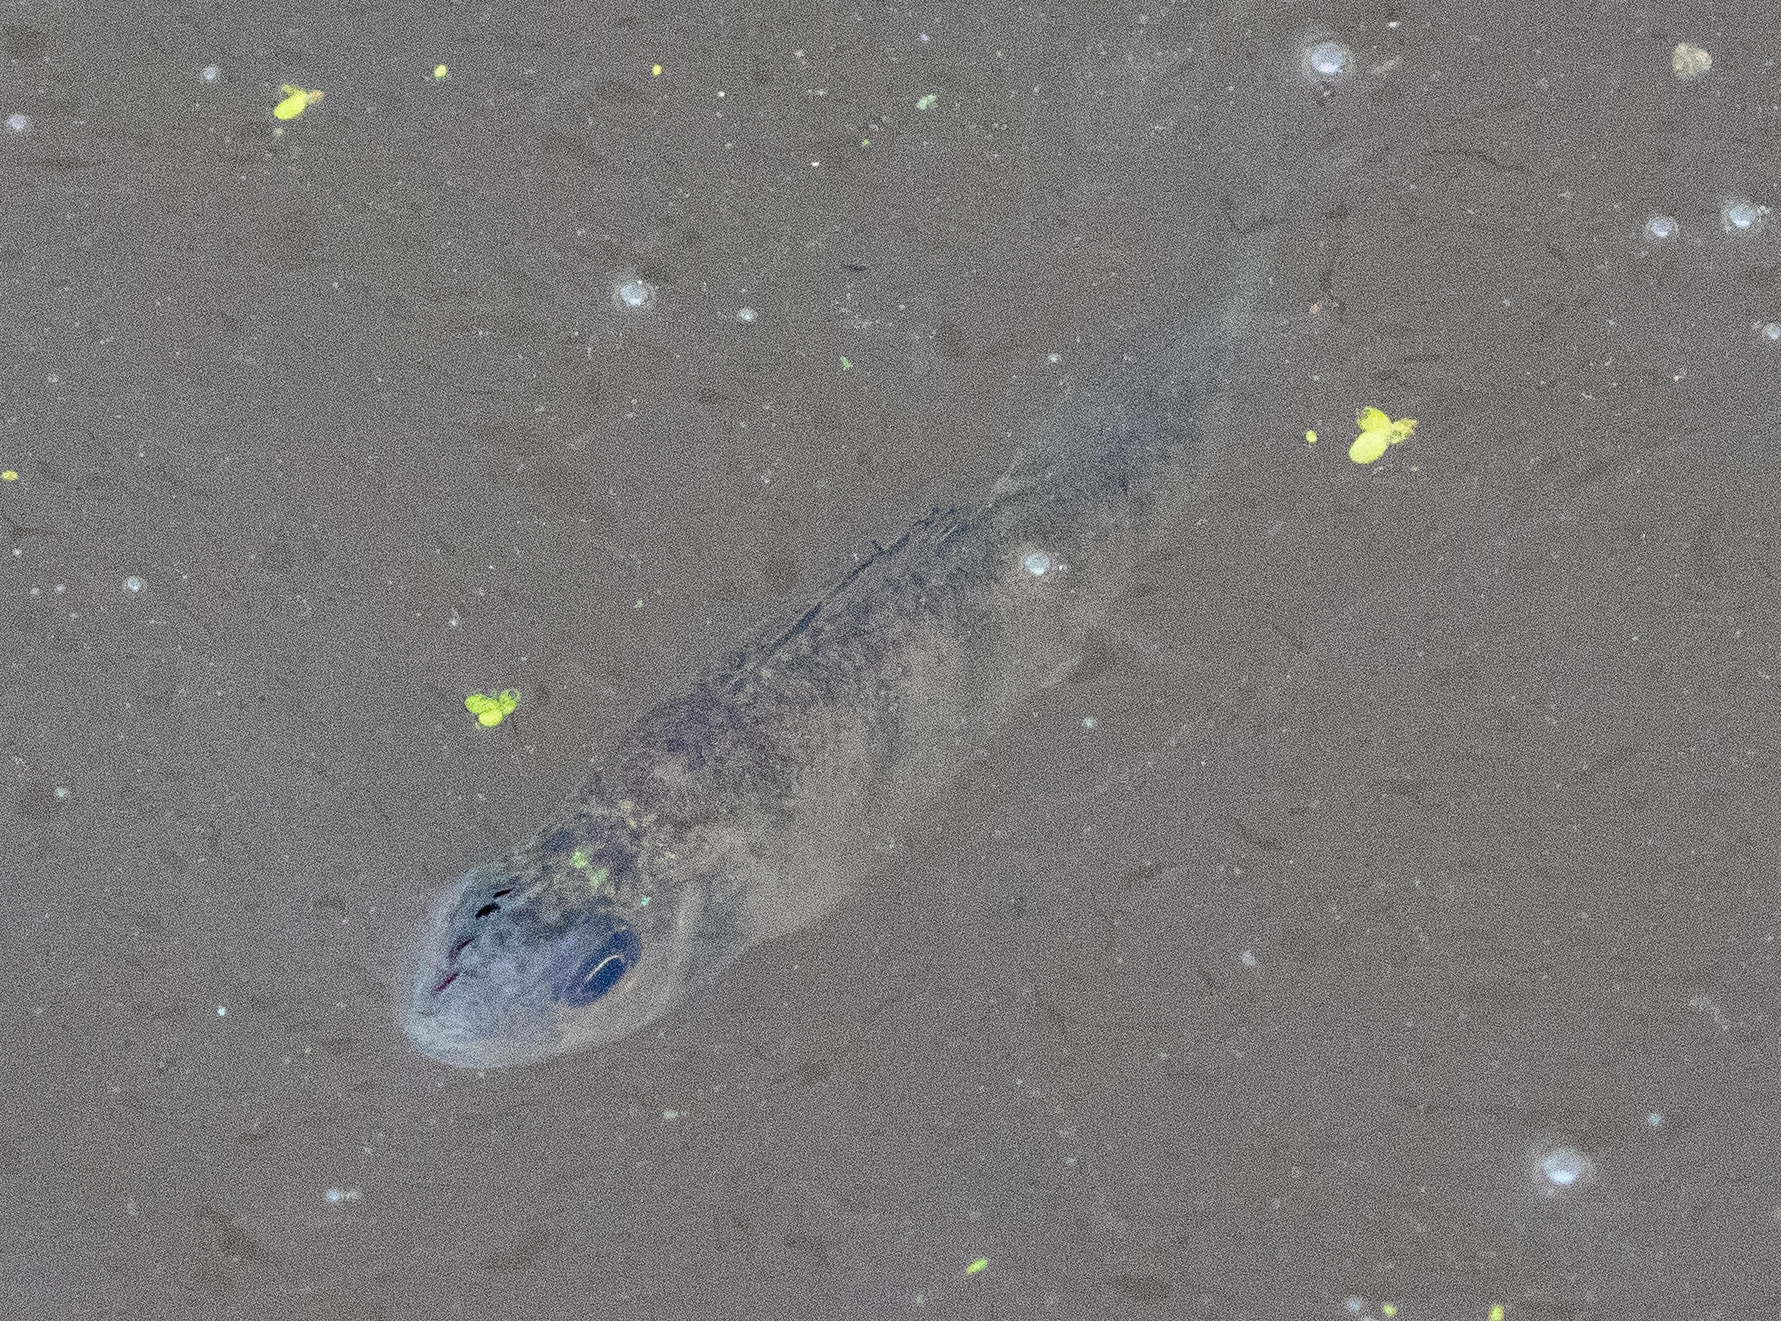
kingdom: Animalia
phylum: Chordata
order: Perciformes
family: Percidae
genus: Perca
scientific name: Perca flavescens
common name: Yellow perch
